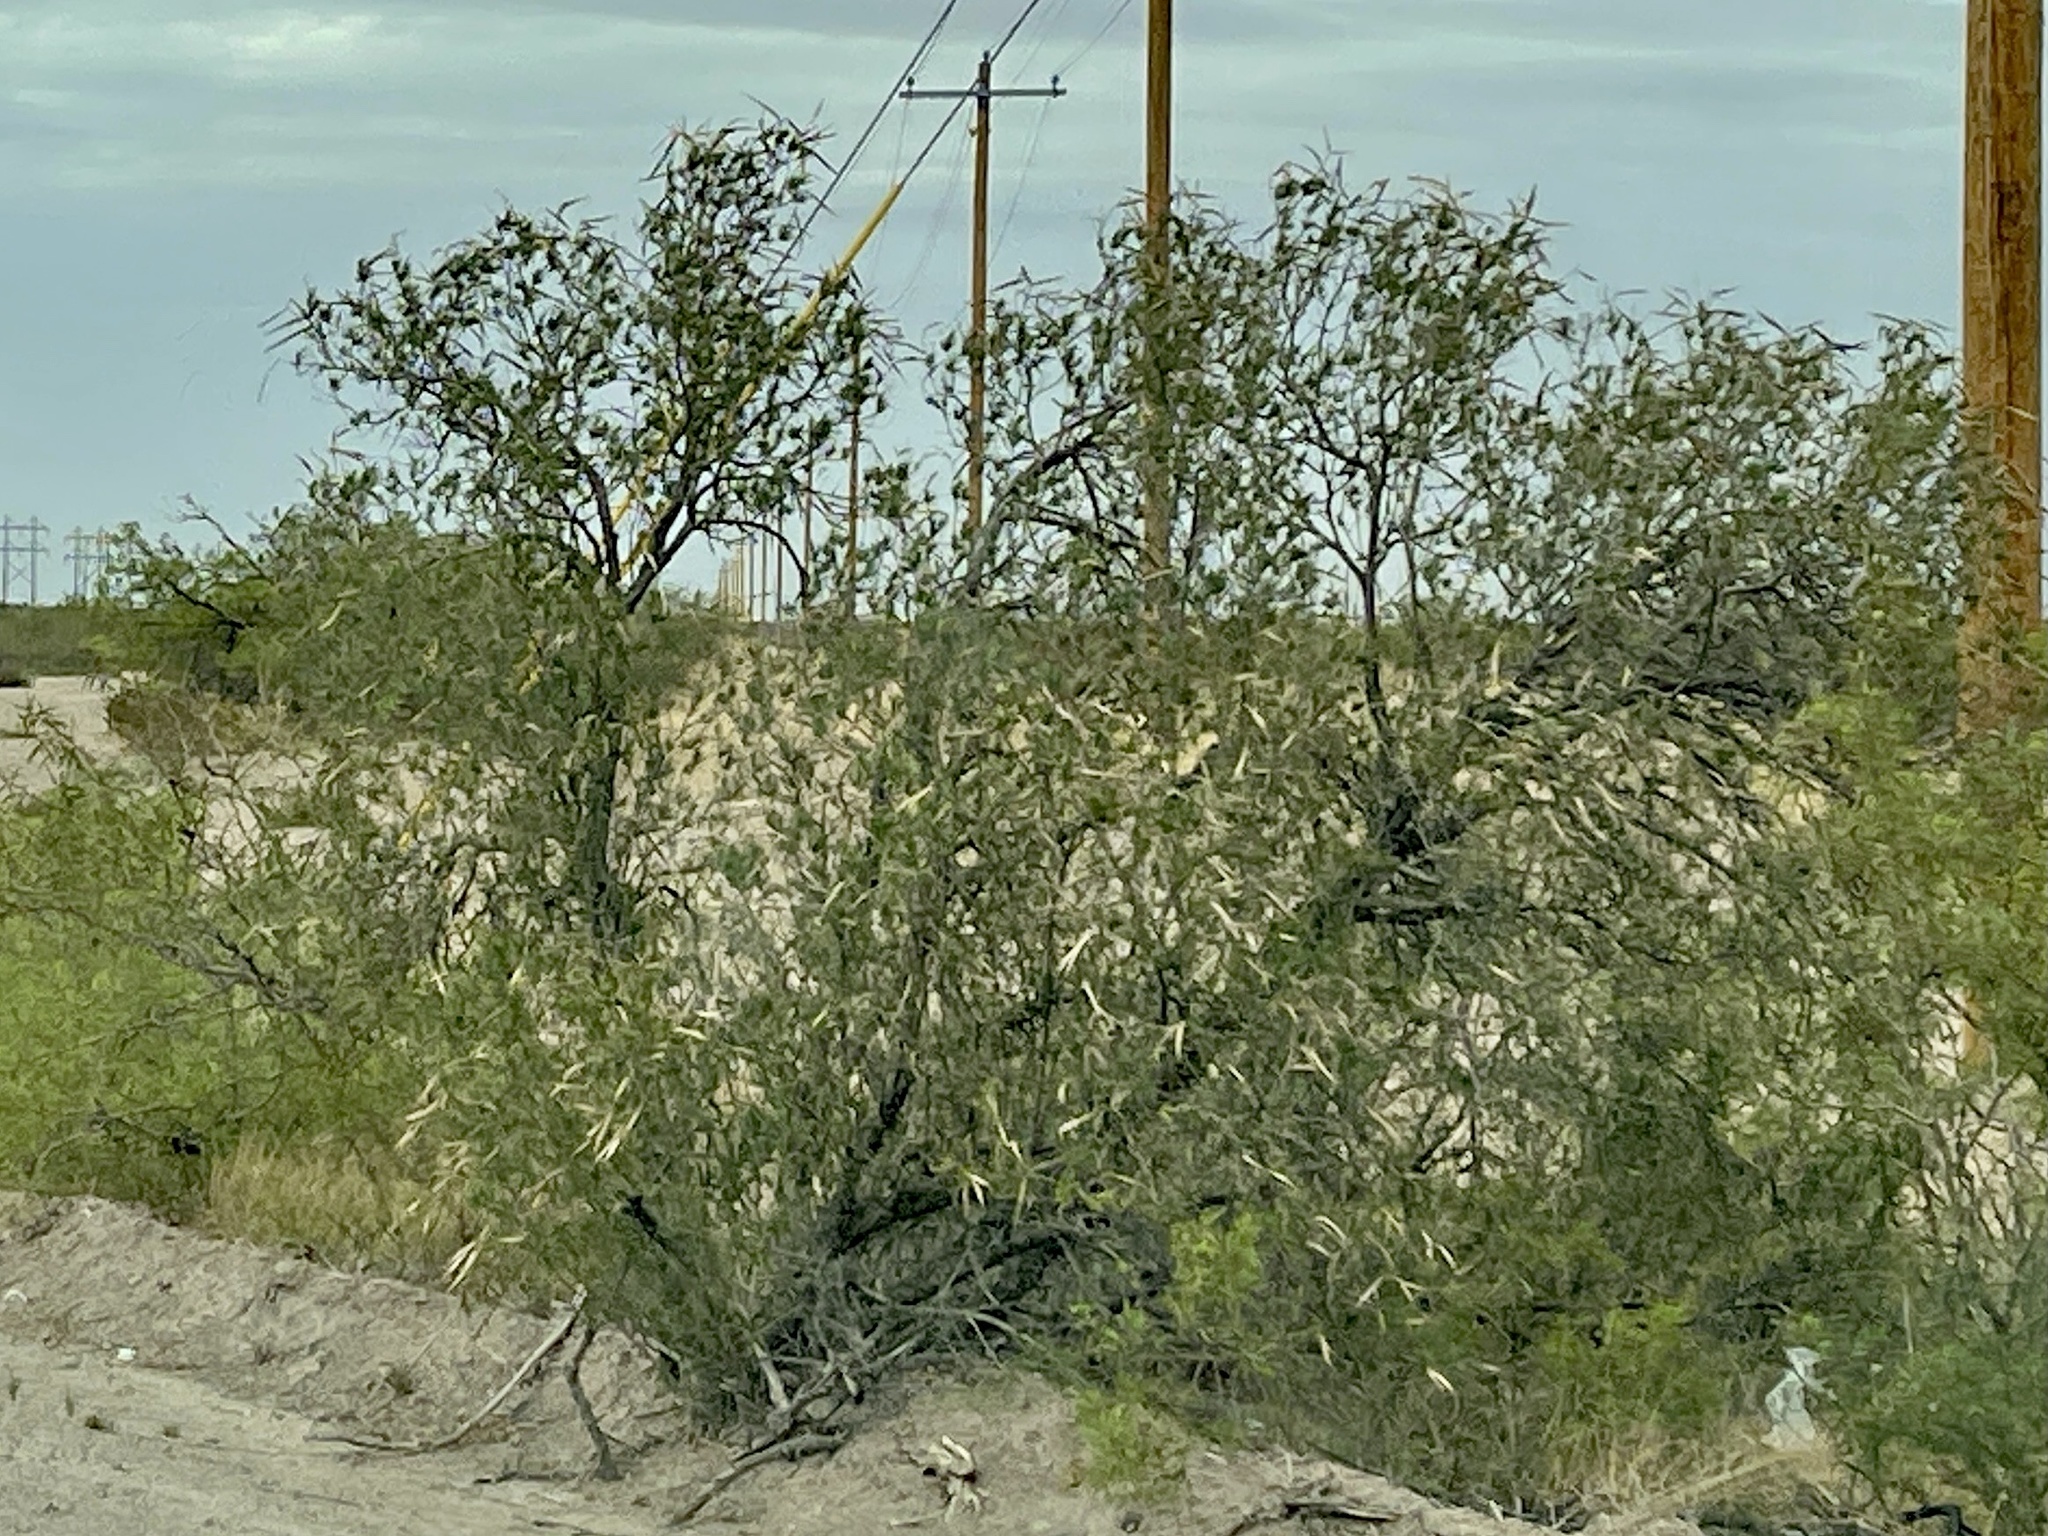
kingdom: Plantae
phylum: Tracheophyta
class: Magnoliopsida
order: Lamiales
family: Bignoniaceae
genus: Chilopsis
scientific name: Chilopsis linearis
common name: Desert-willow
